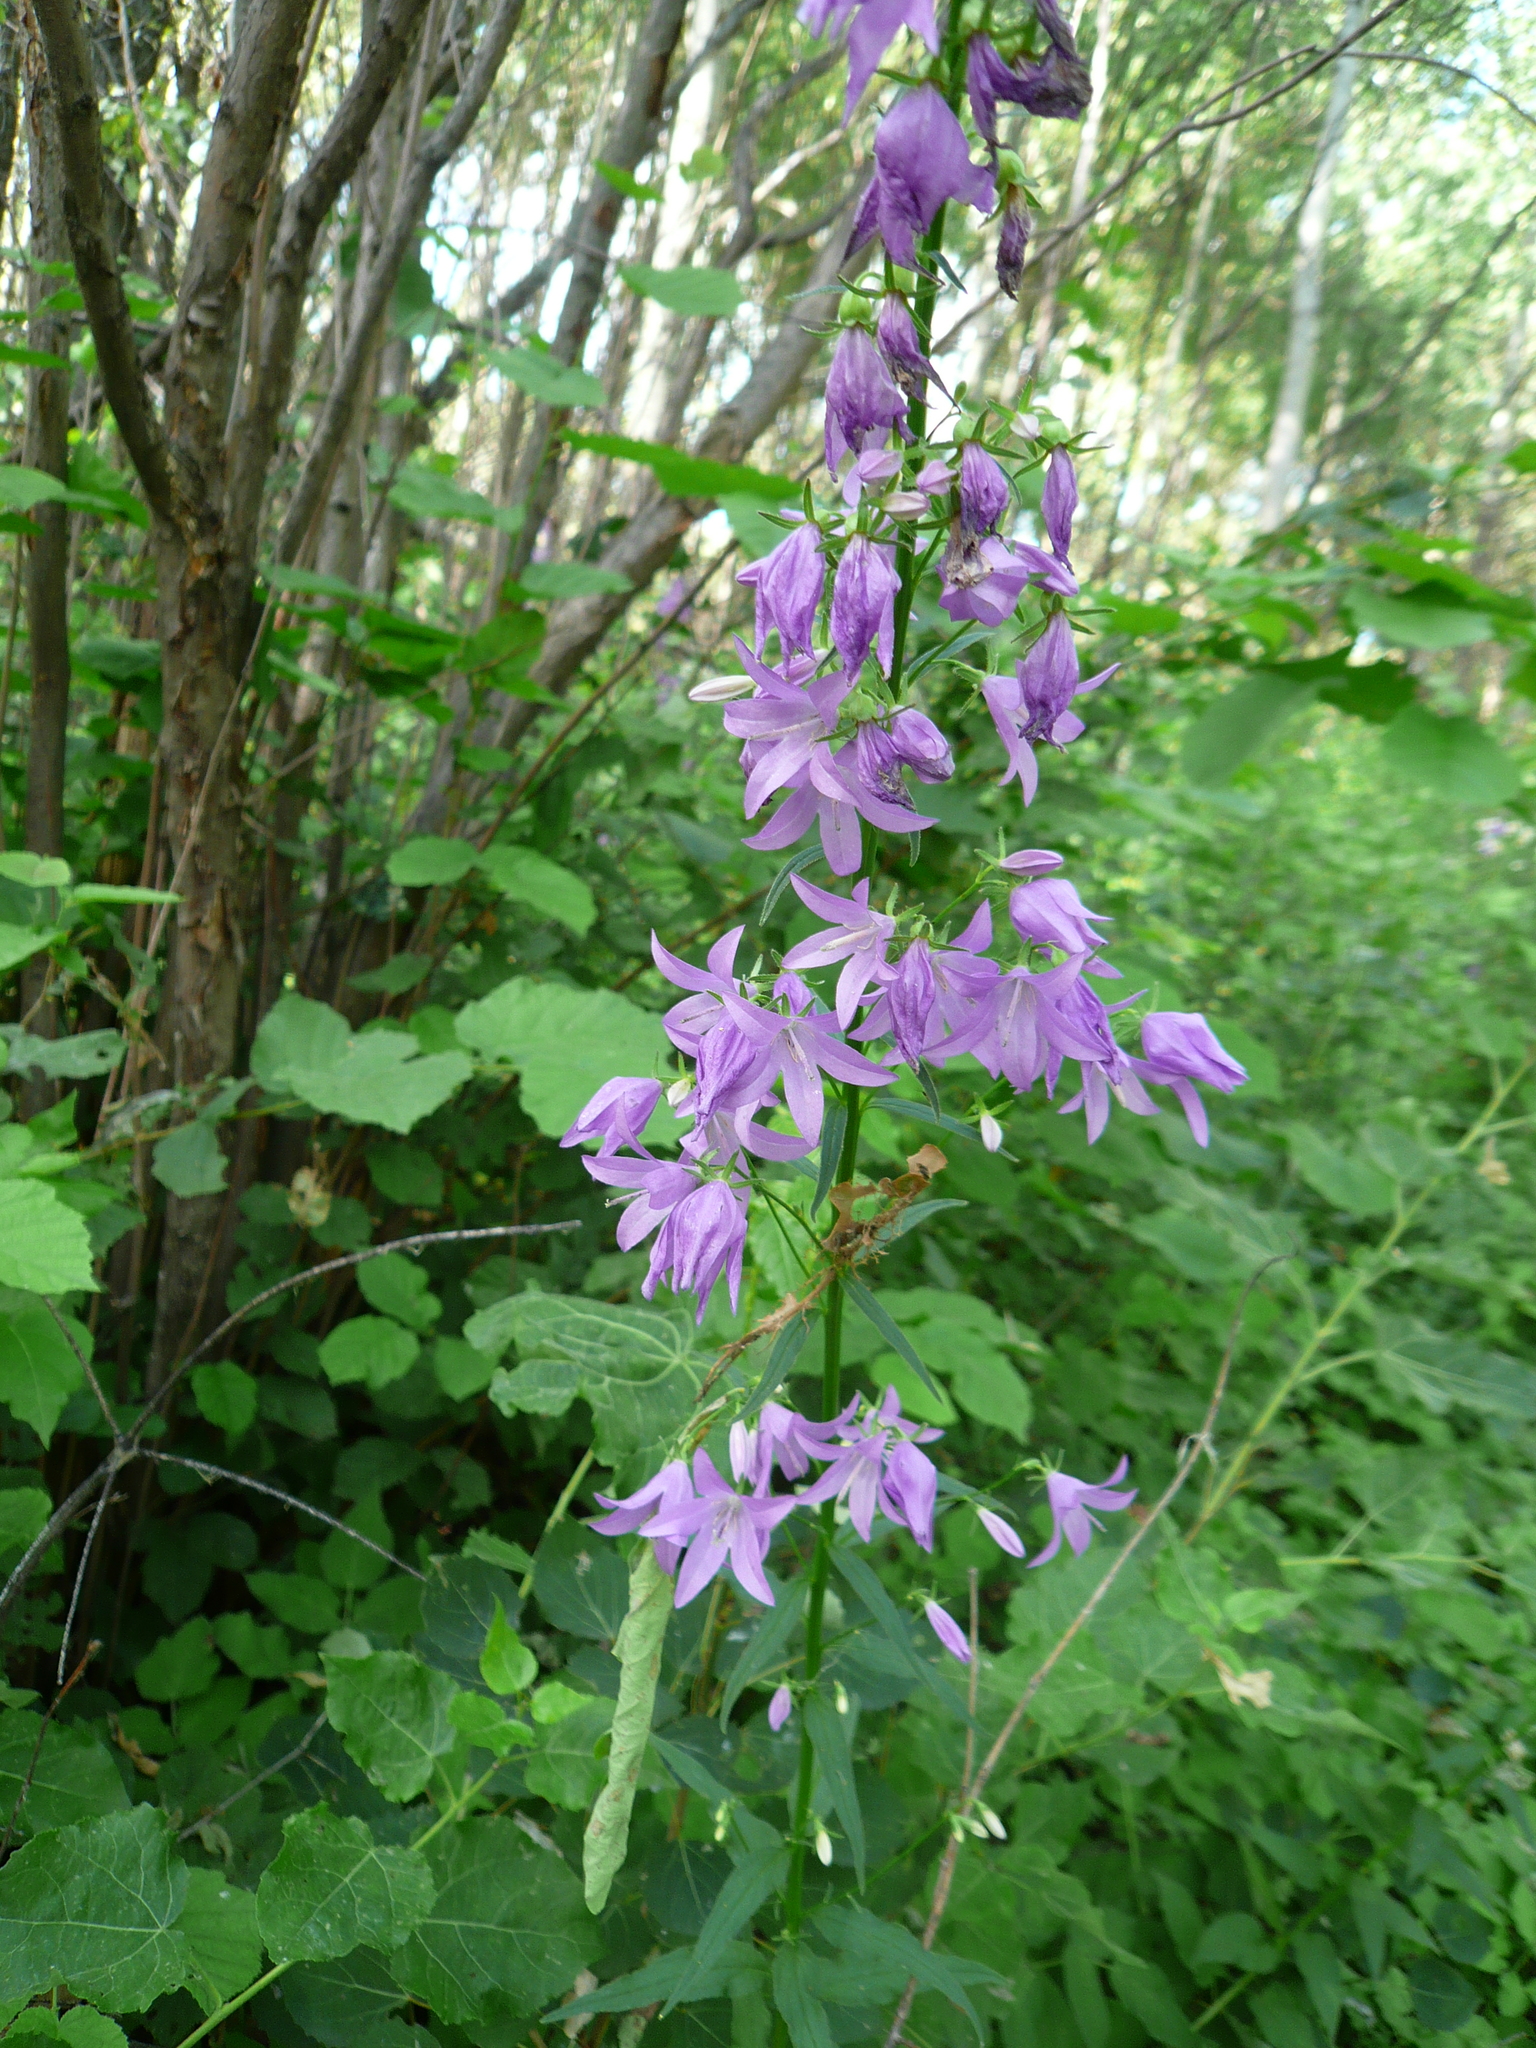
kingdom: Plantae
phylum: Tracheophyta
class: Magnoliopsida
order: Asterales
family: Campanulaceae
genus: Campanula
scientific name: Campanula rapunculoides
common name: Creeping bellflower
